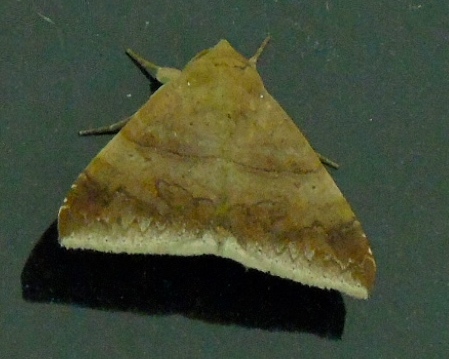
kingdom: Animalia
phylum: Arthropoda
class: Insecta
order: Lepidoptera
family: Erebidae
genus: Achaea
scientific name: Achaea
